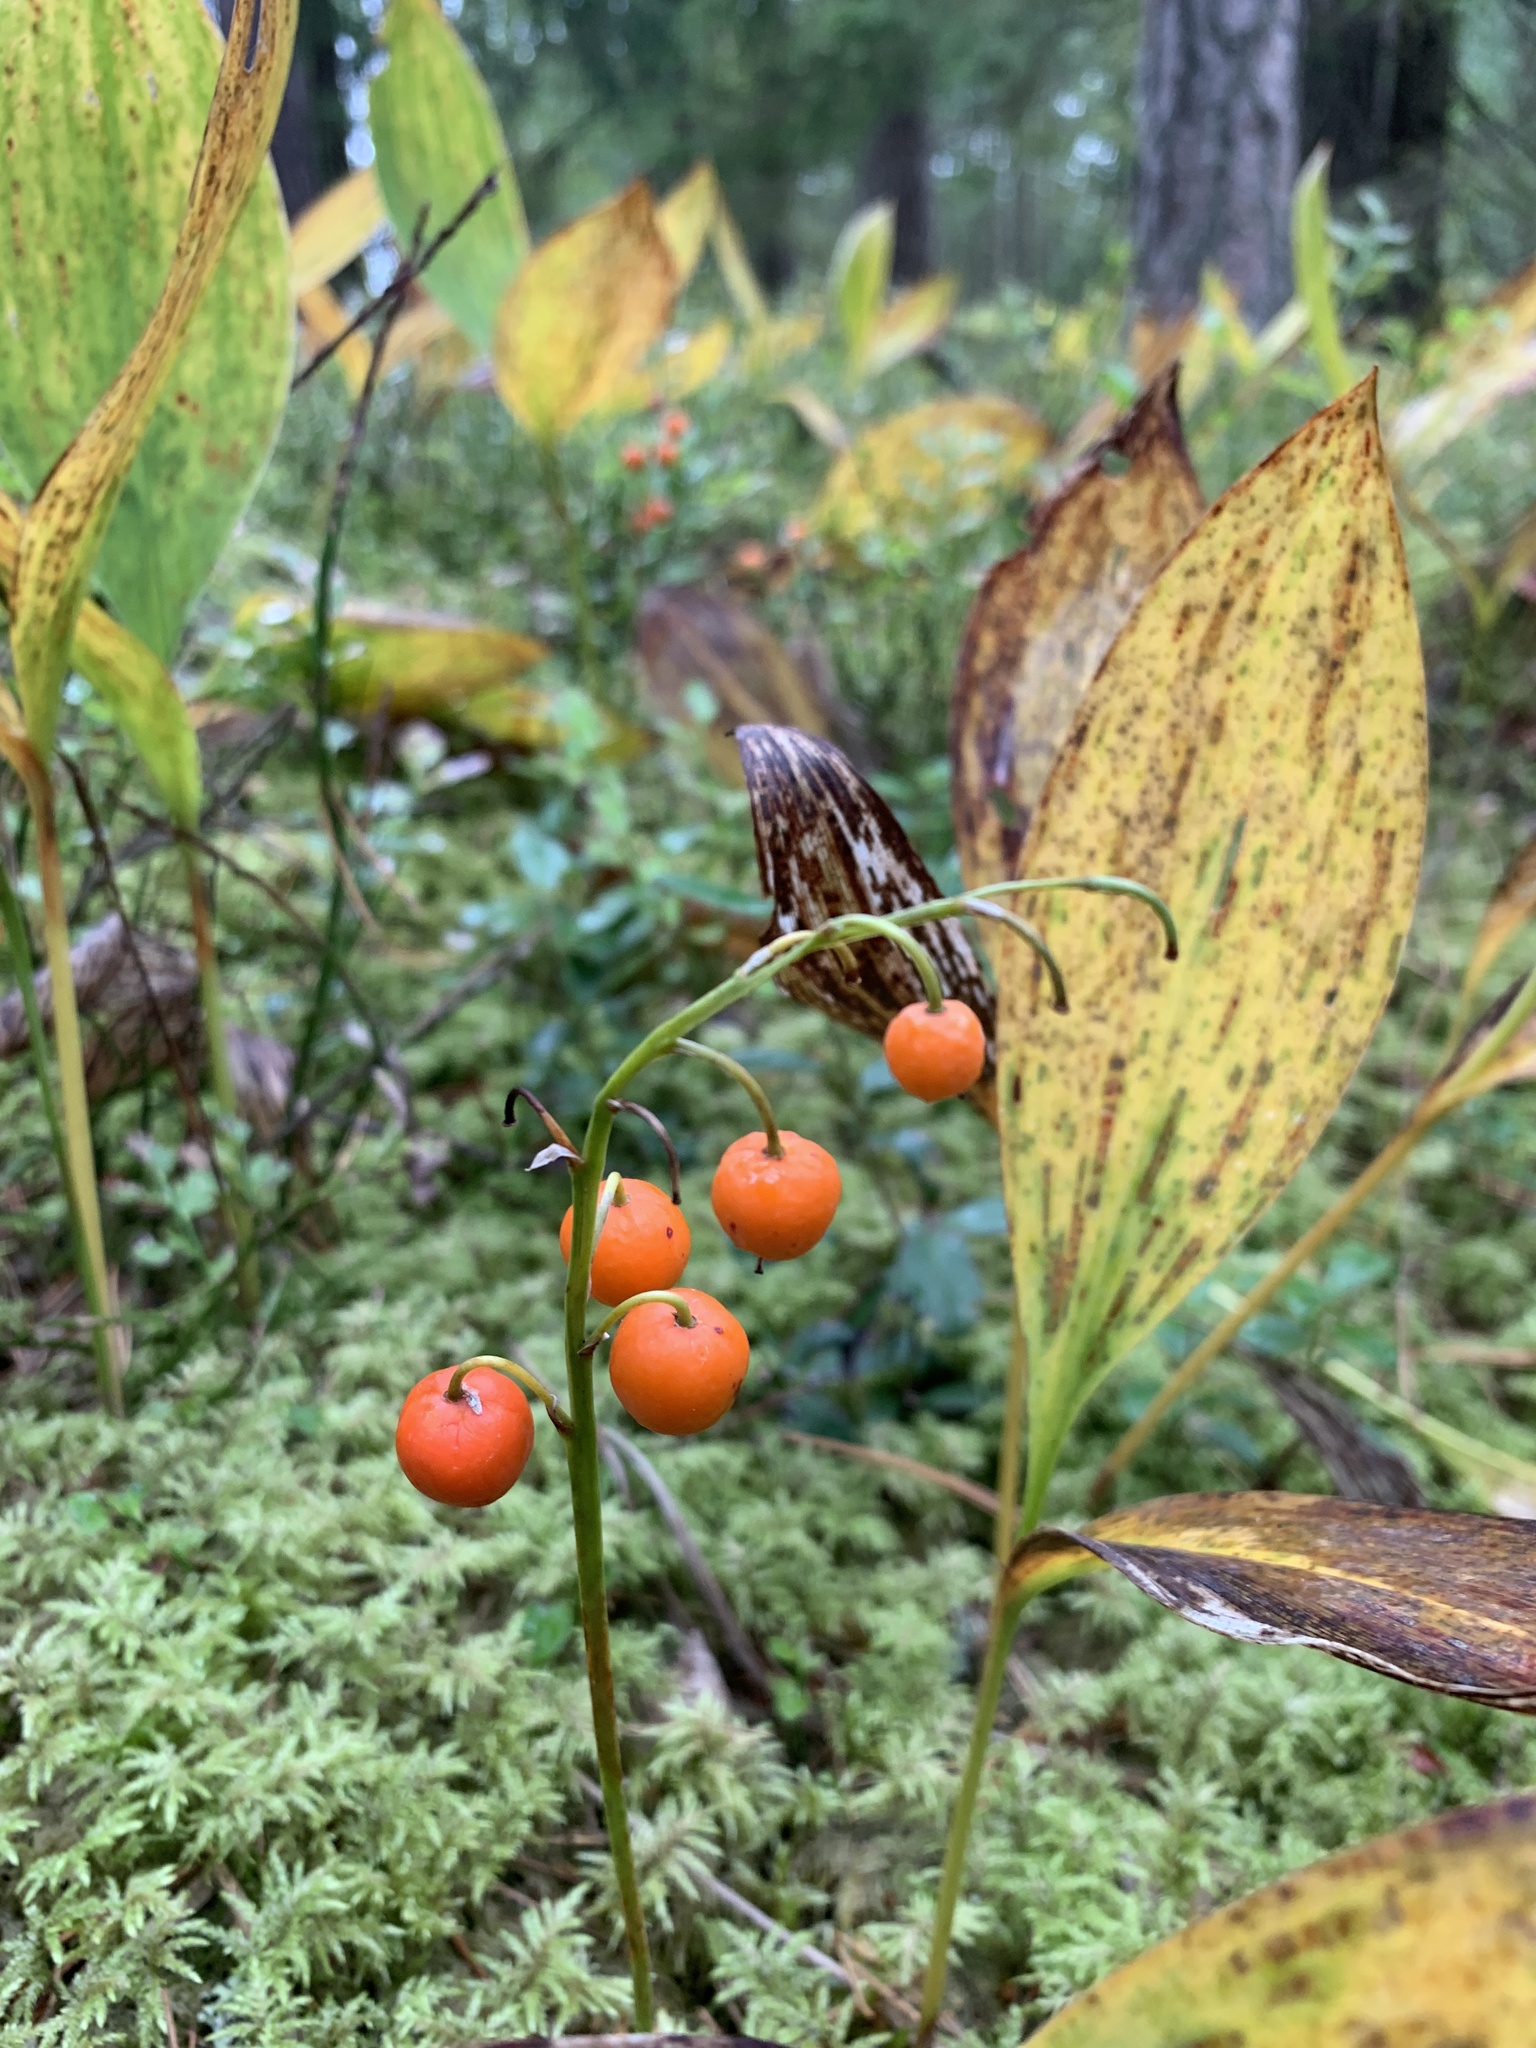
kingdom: Plantae
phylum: Tracheophyta
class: Liliopsida
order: Asparagales
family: Asparagaceae
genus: Convallaria
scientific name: Convallaria majalis
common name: Lily-of-the-valley
